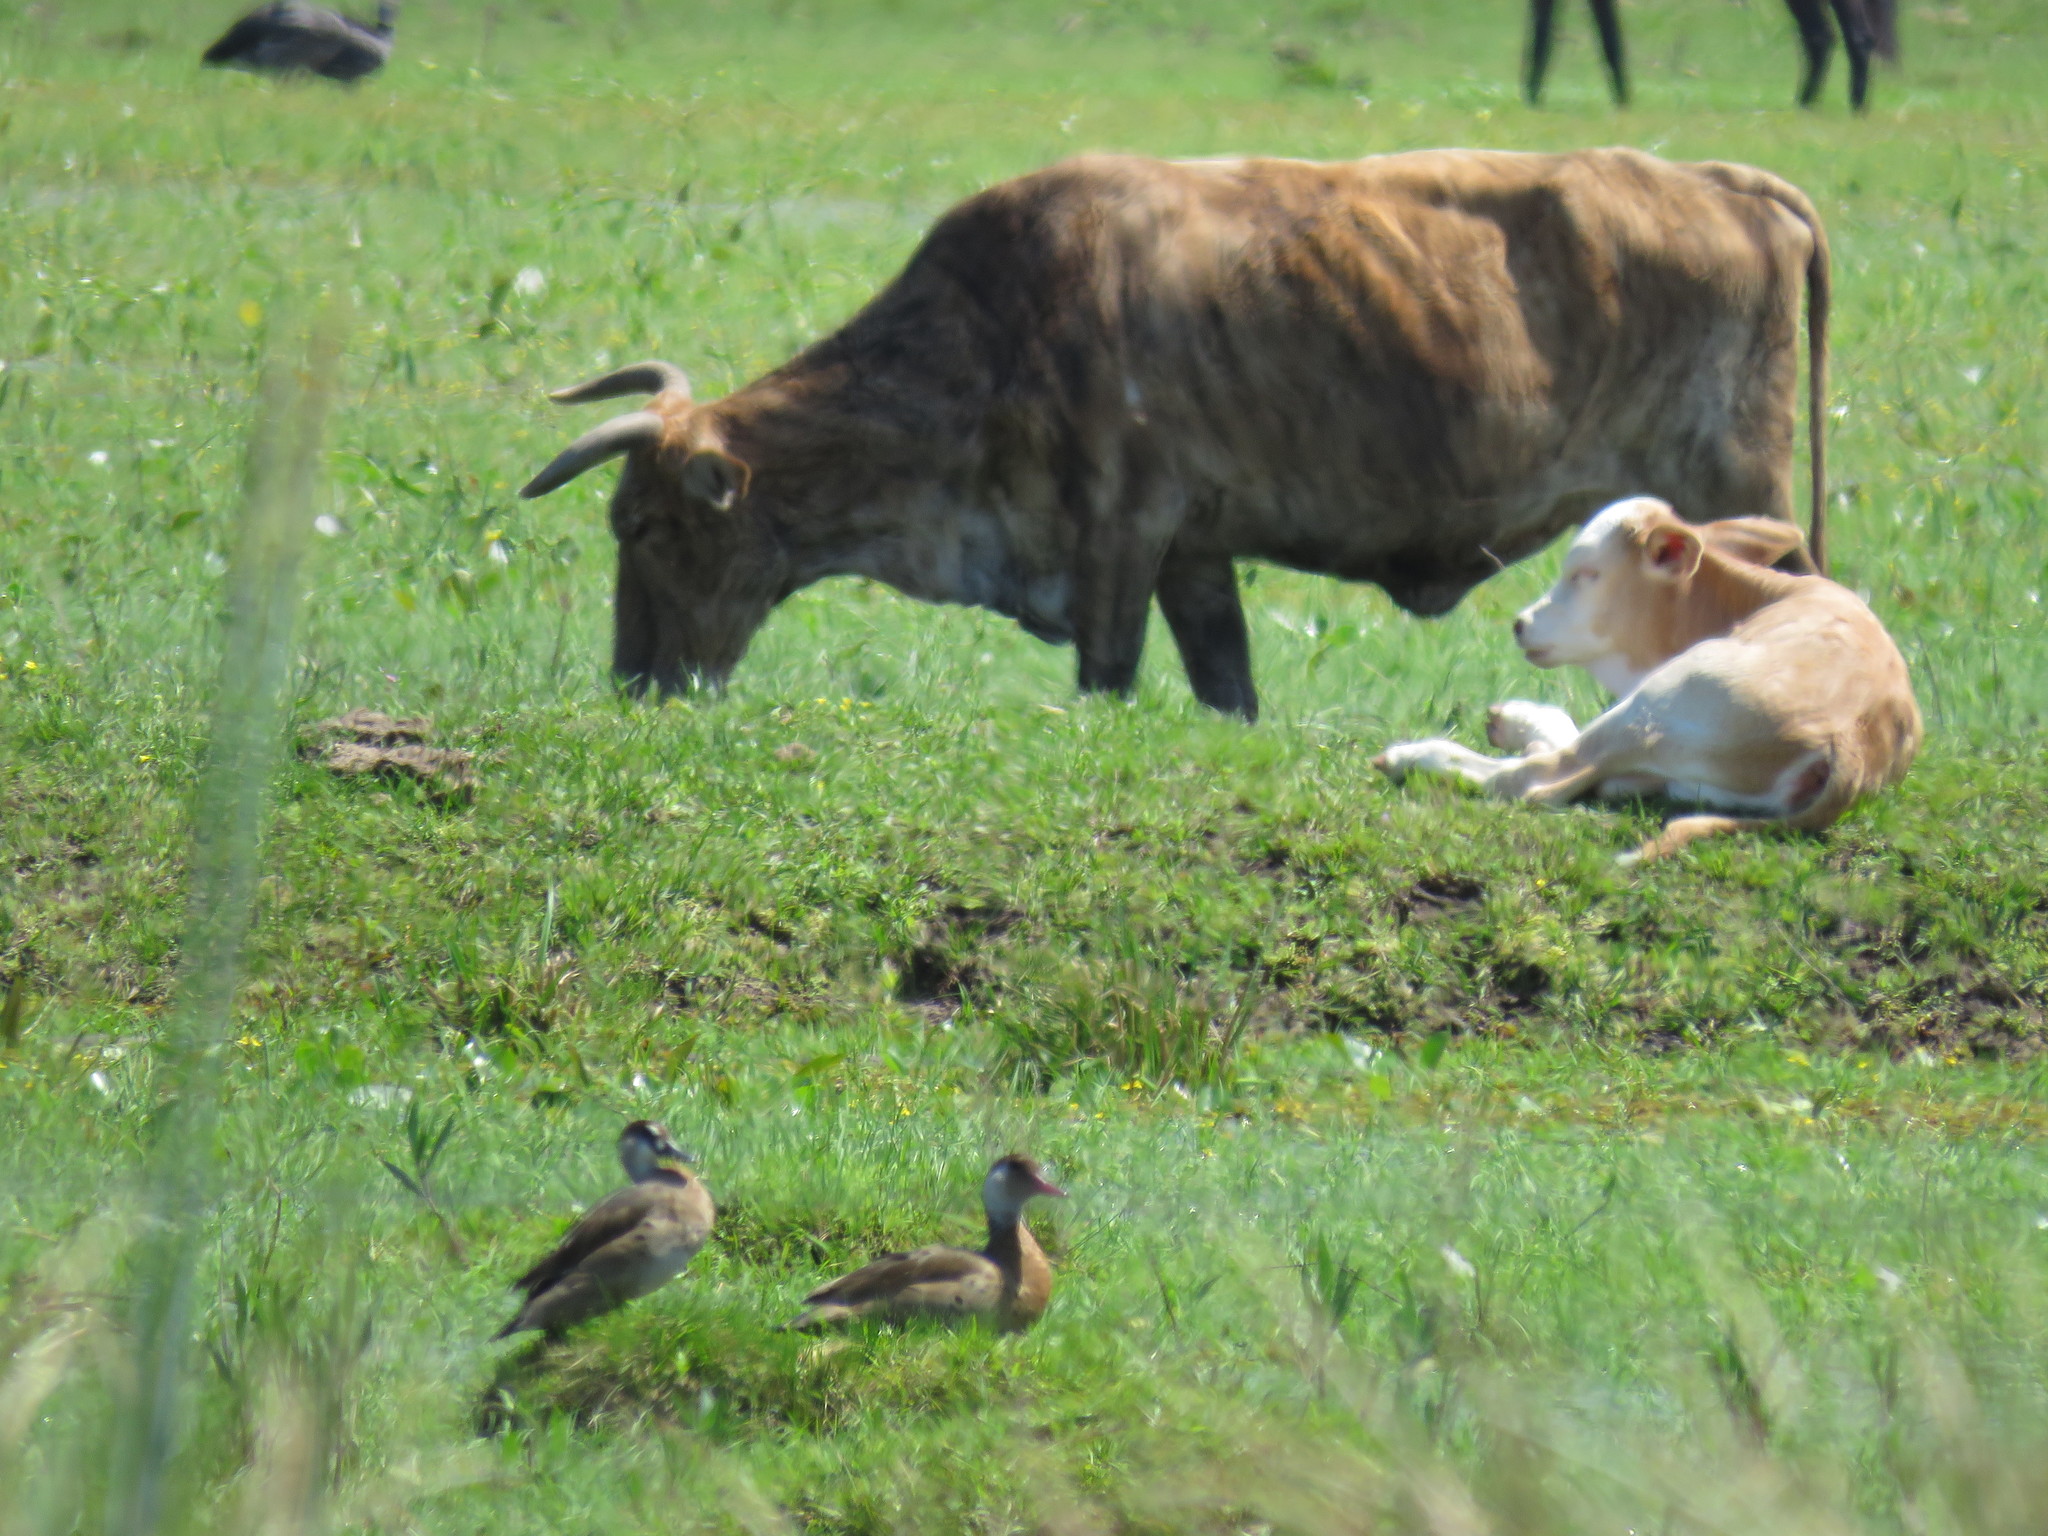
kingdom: Animalia
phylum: Chordata
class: Aves
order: Anseriformes
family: Anatidae
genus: Amazonetta
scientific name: Amazonetta brasiliensis
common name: Brazilian teal
